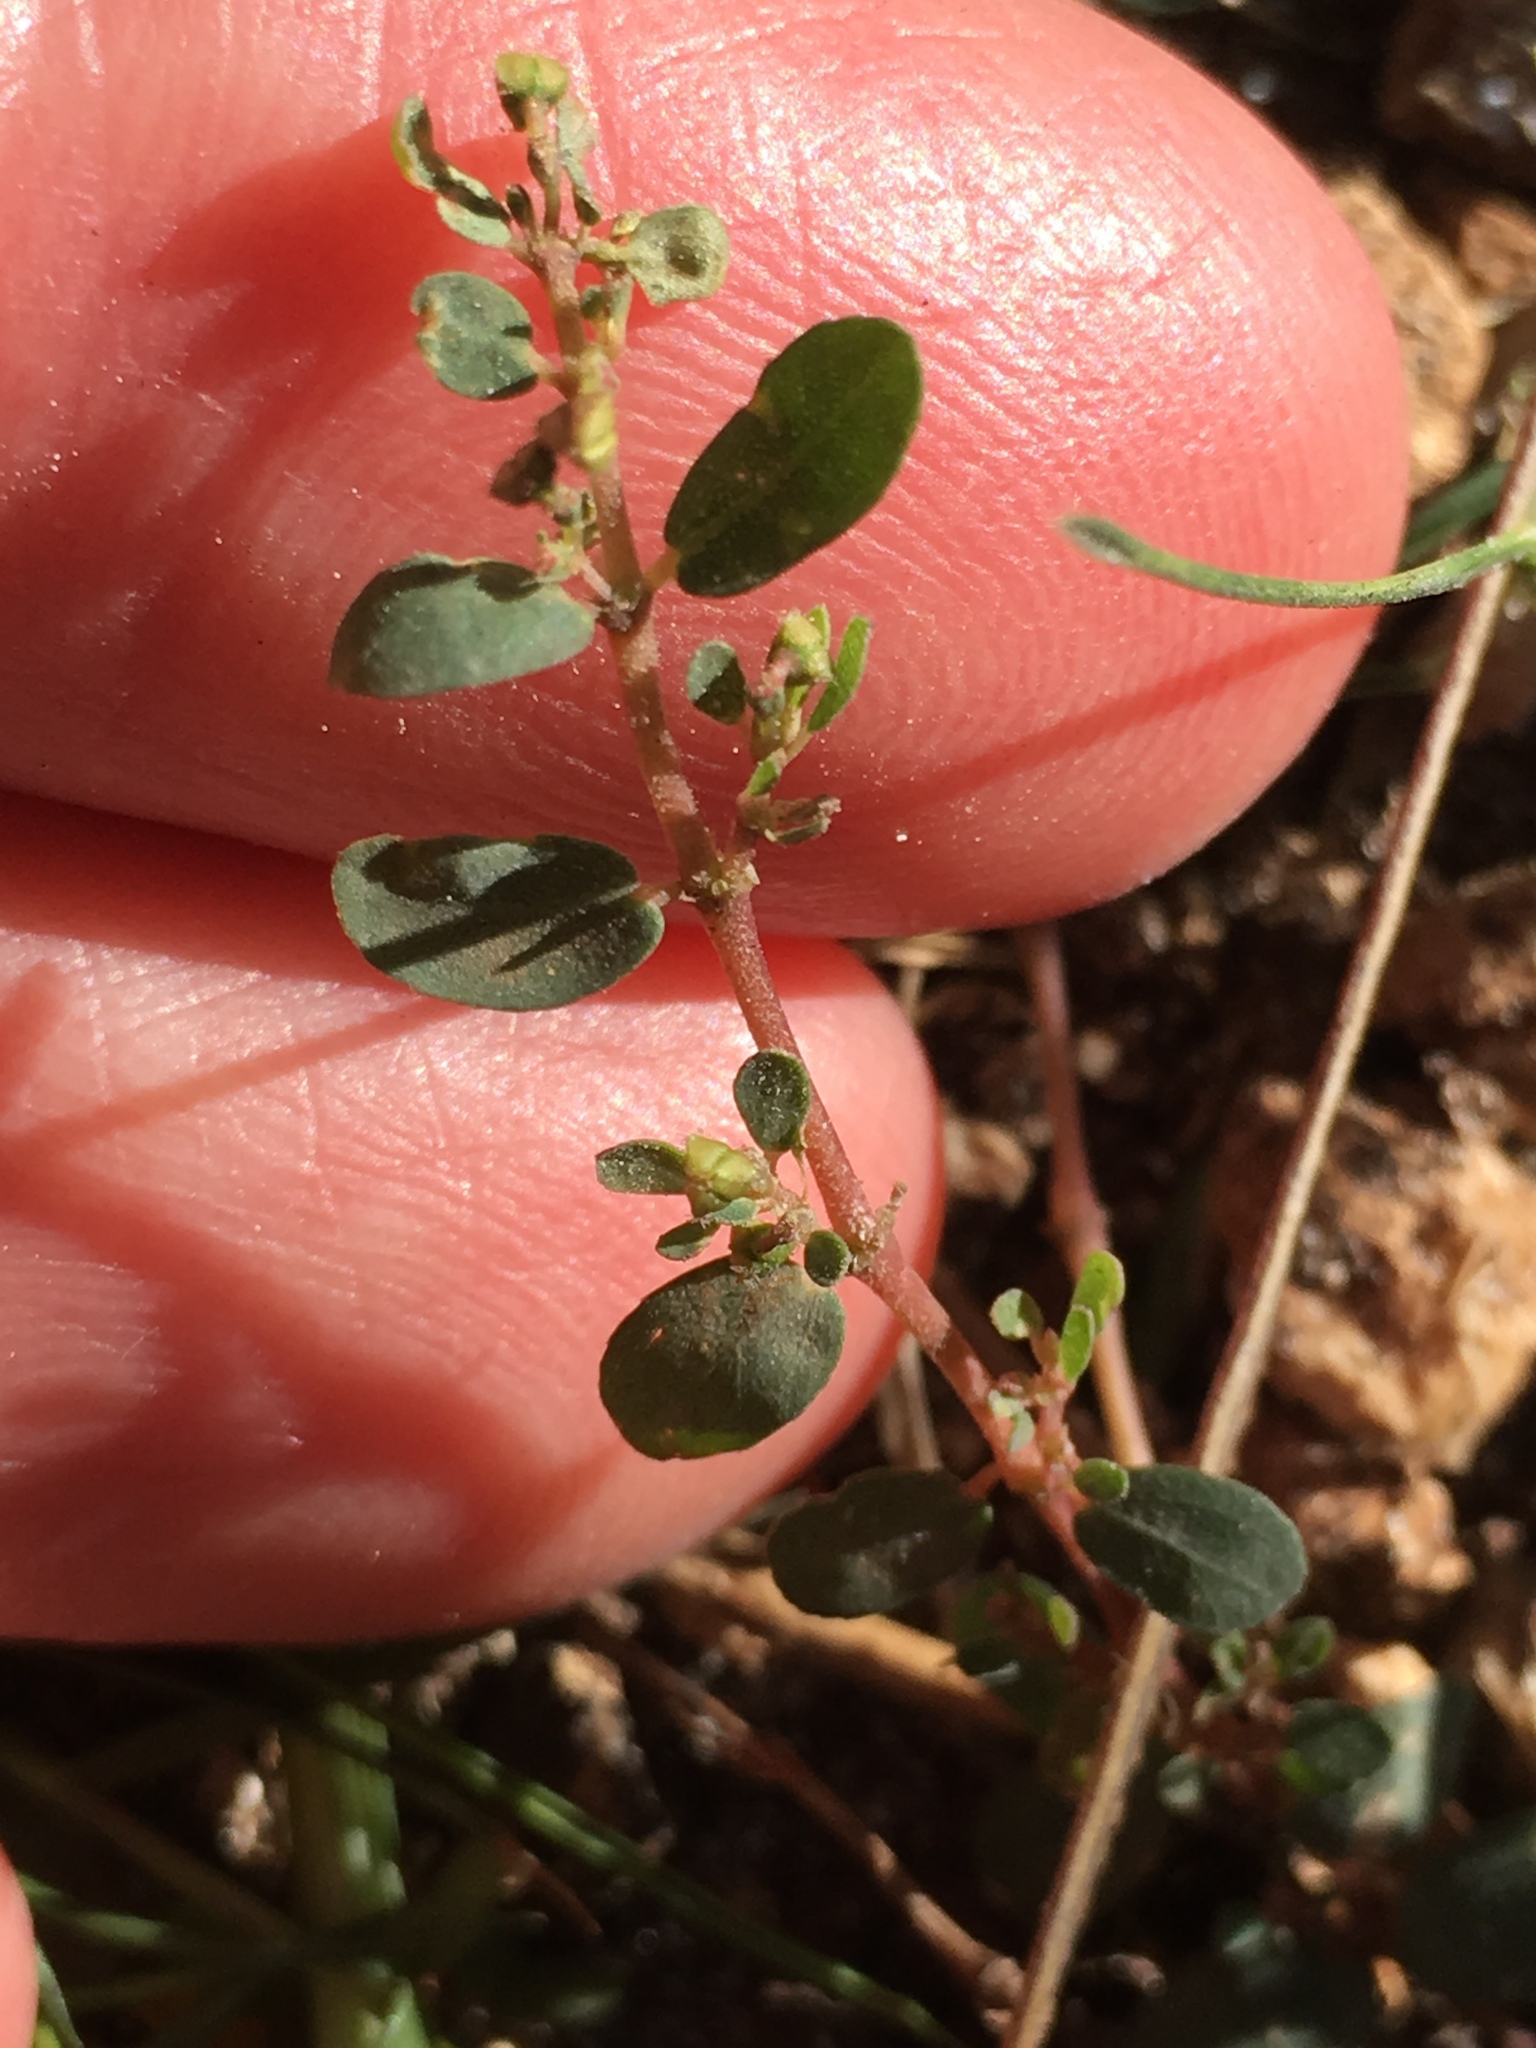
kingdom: Plantae
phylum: Tracheophyta
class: Magnoliopsida
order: Malpighiales
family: Euphorbiaceae
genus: Euphorbia
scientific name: Euphorbia prostrata
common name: Prostrate sandmat
